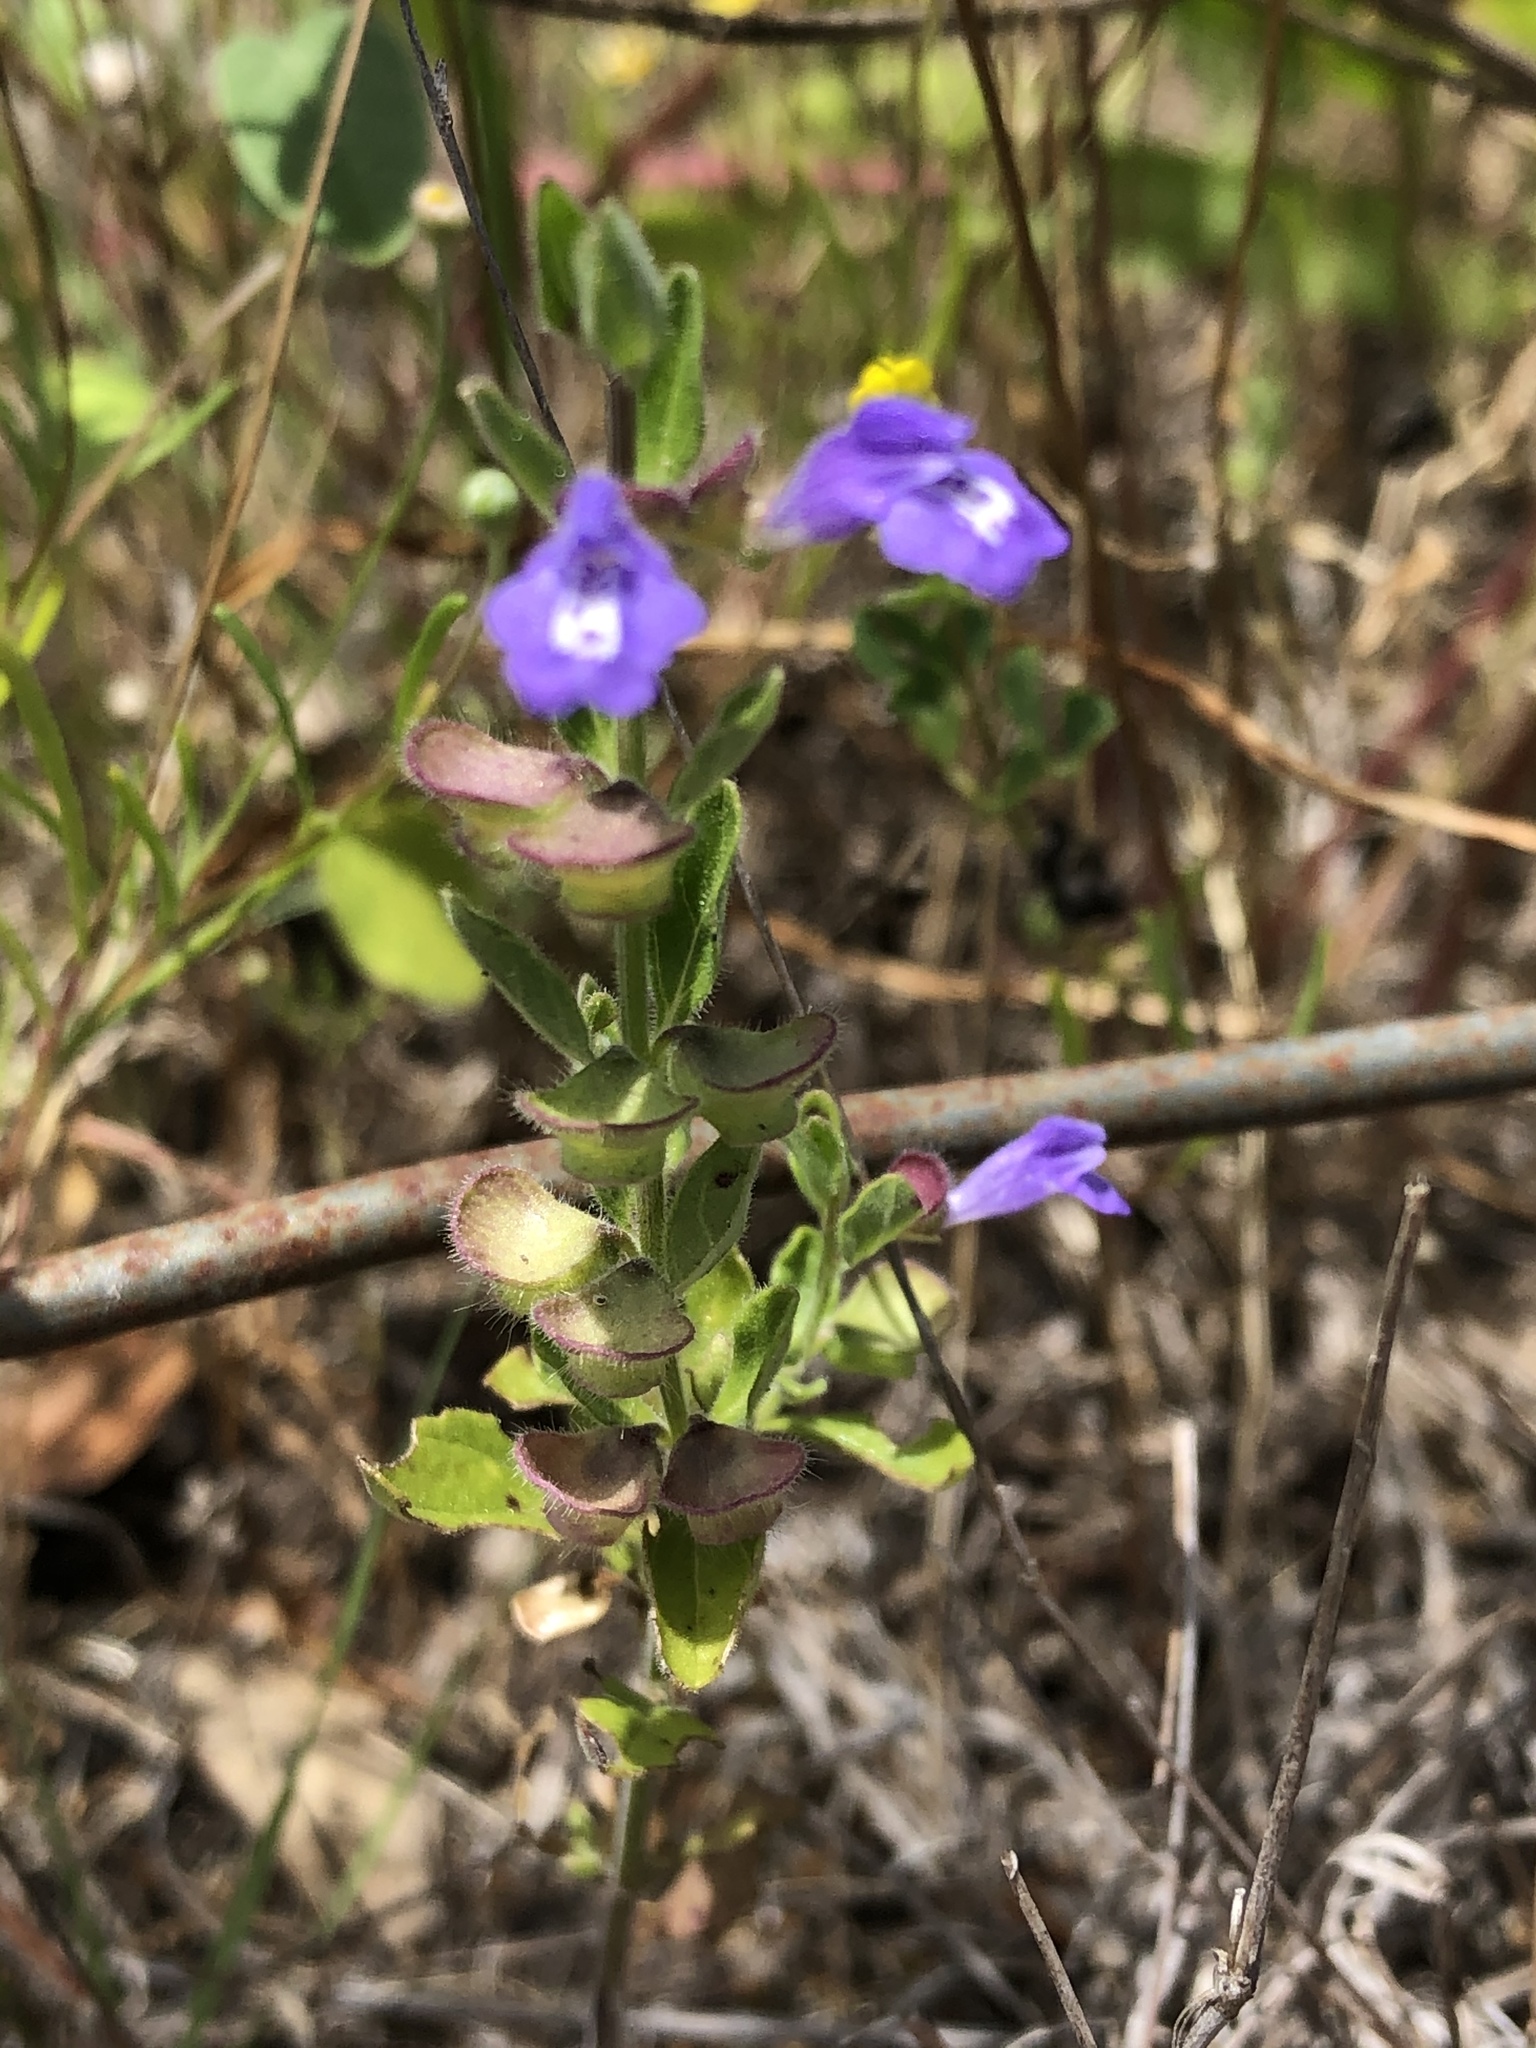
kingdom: Plantae
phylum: Tracheophyta
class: Magnoliopsida
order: Lamiales
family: Lamiaceae
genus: Scutellaria
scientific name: Scutellaria drummondii
